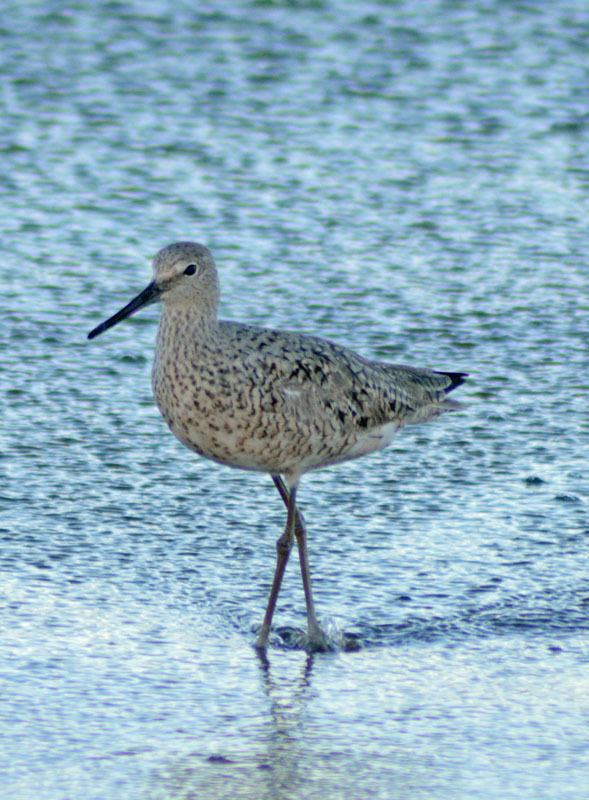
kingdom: Animalia
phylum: Chordata
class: Aves
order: Charadriiformes
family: Scolopacidae
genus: Tringa
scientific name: Tringa semipalmata
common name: Willet
